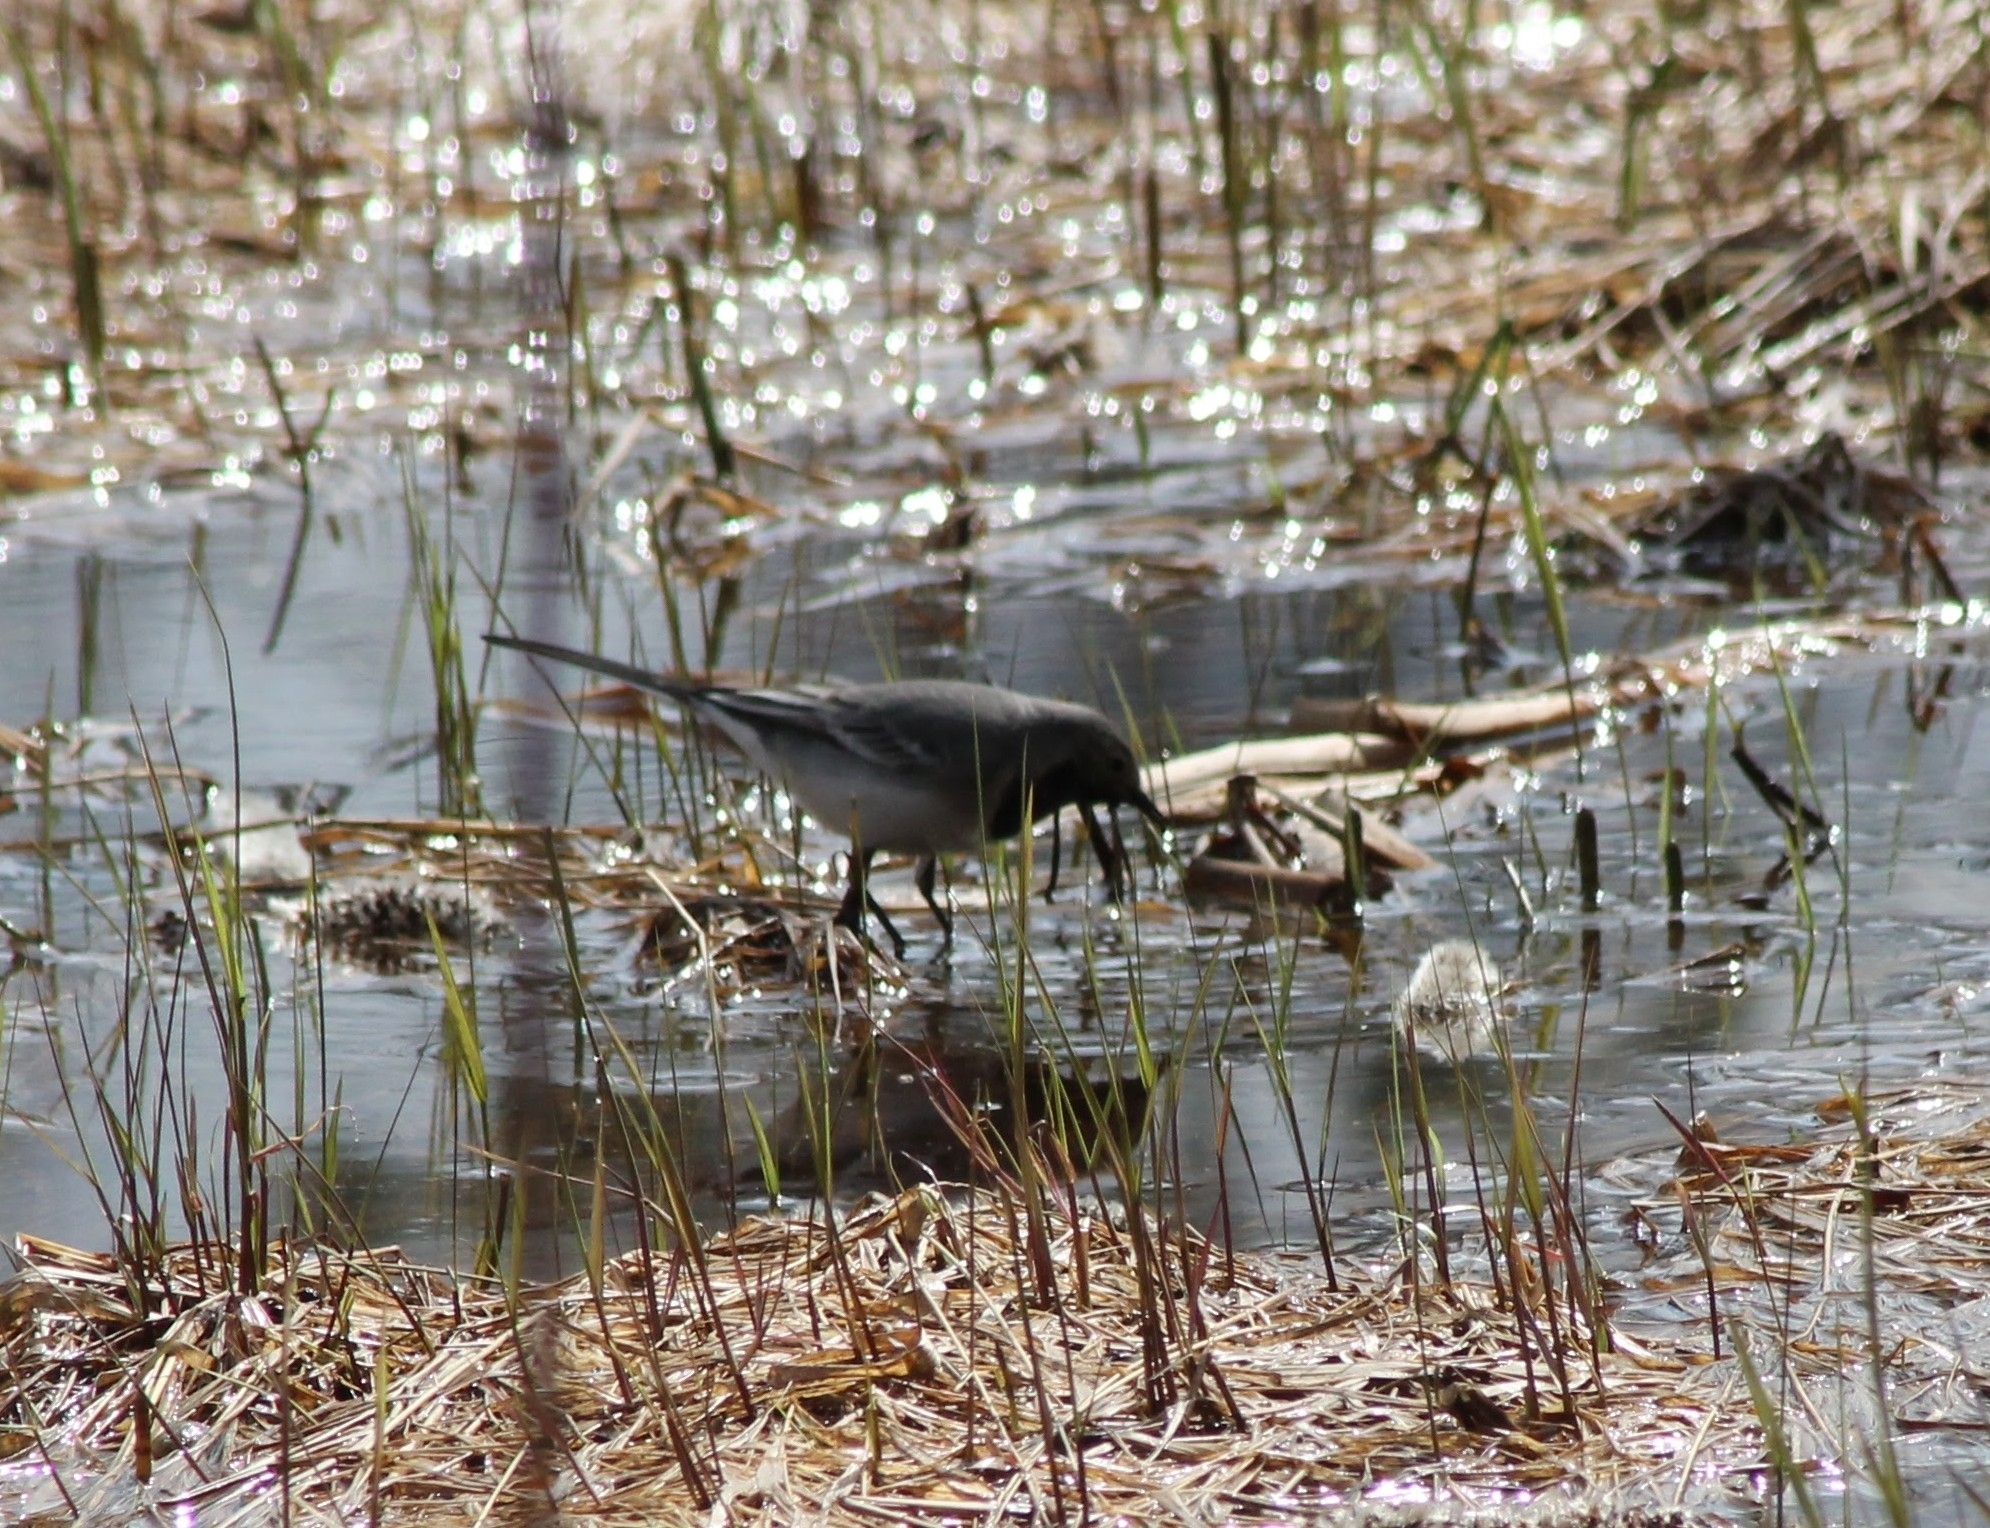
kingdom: Animalia
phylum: Chordata
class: Aves
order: Passeriformes
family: Motacillidae
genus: Motacilla
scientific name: Motacilla alba
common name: White wagtail
